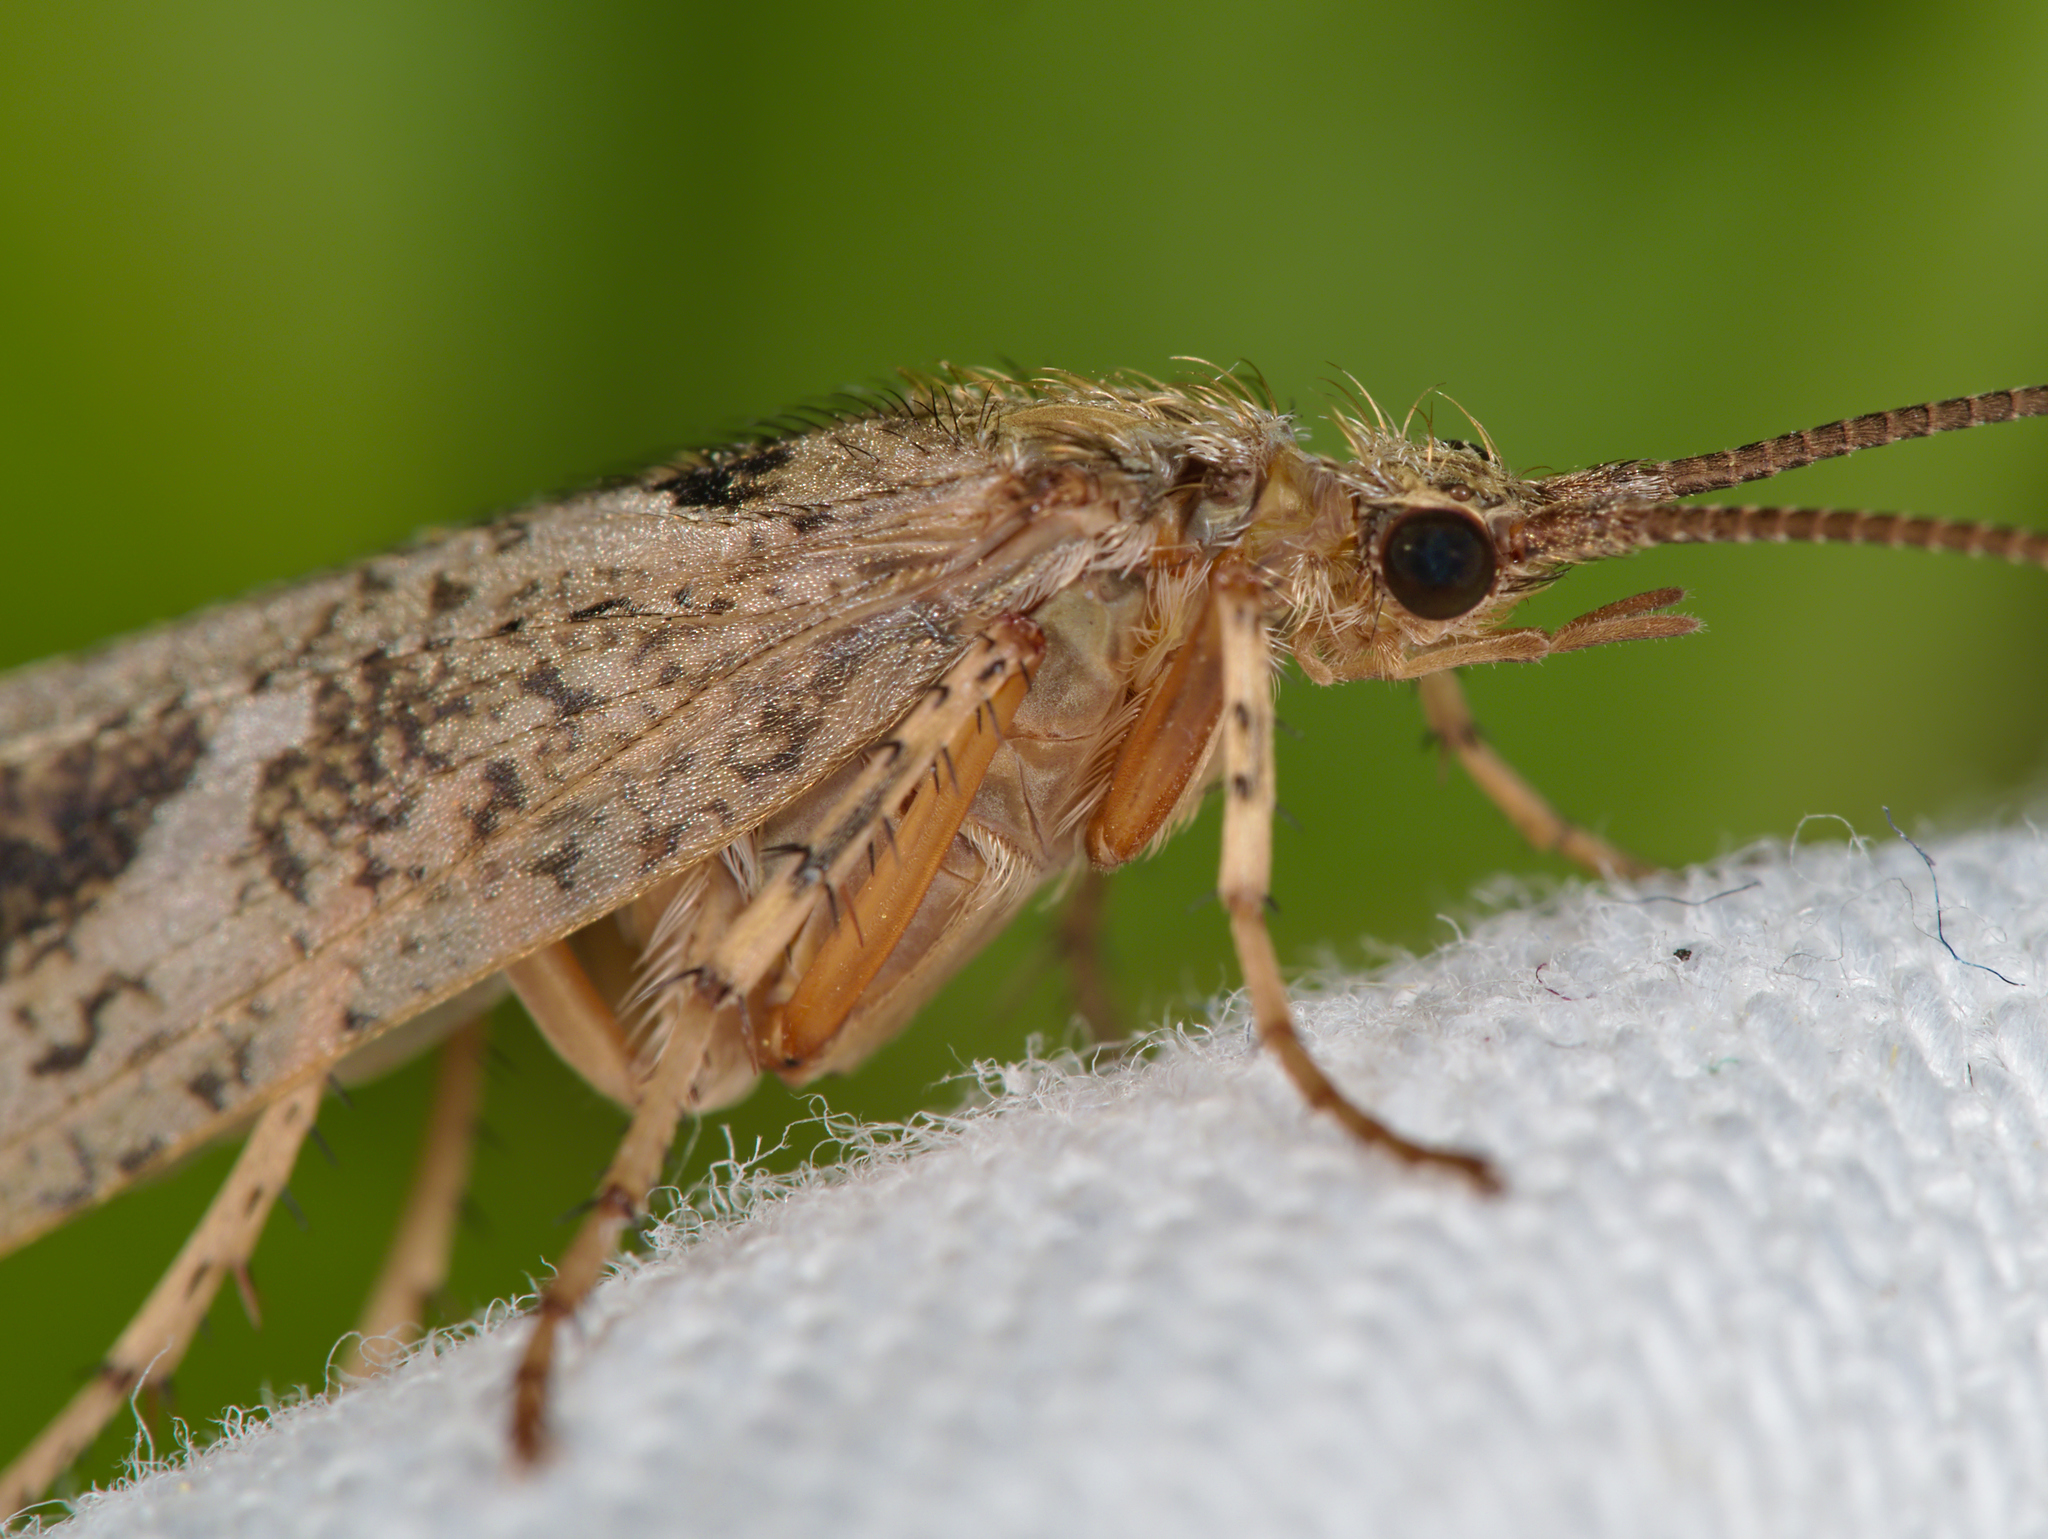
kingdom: Animalia
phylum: Arthropoda
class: Insecta
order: Trichoptera
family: Limnephilidae
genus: Glyphotaelius
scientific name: Glyphotaelius pellucidus
